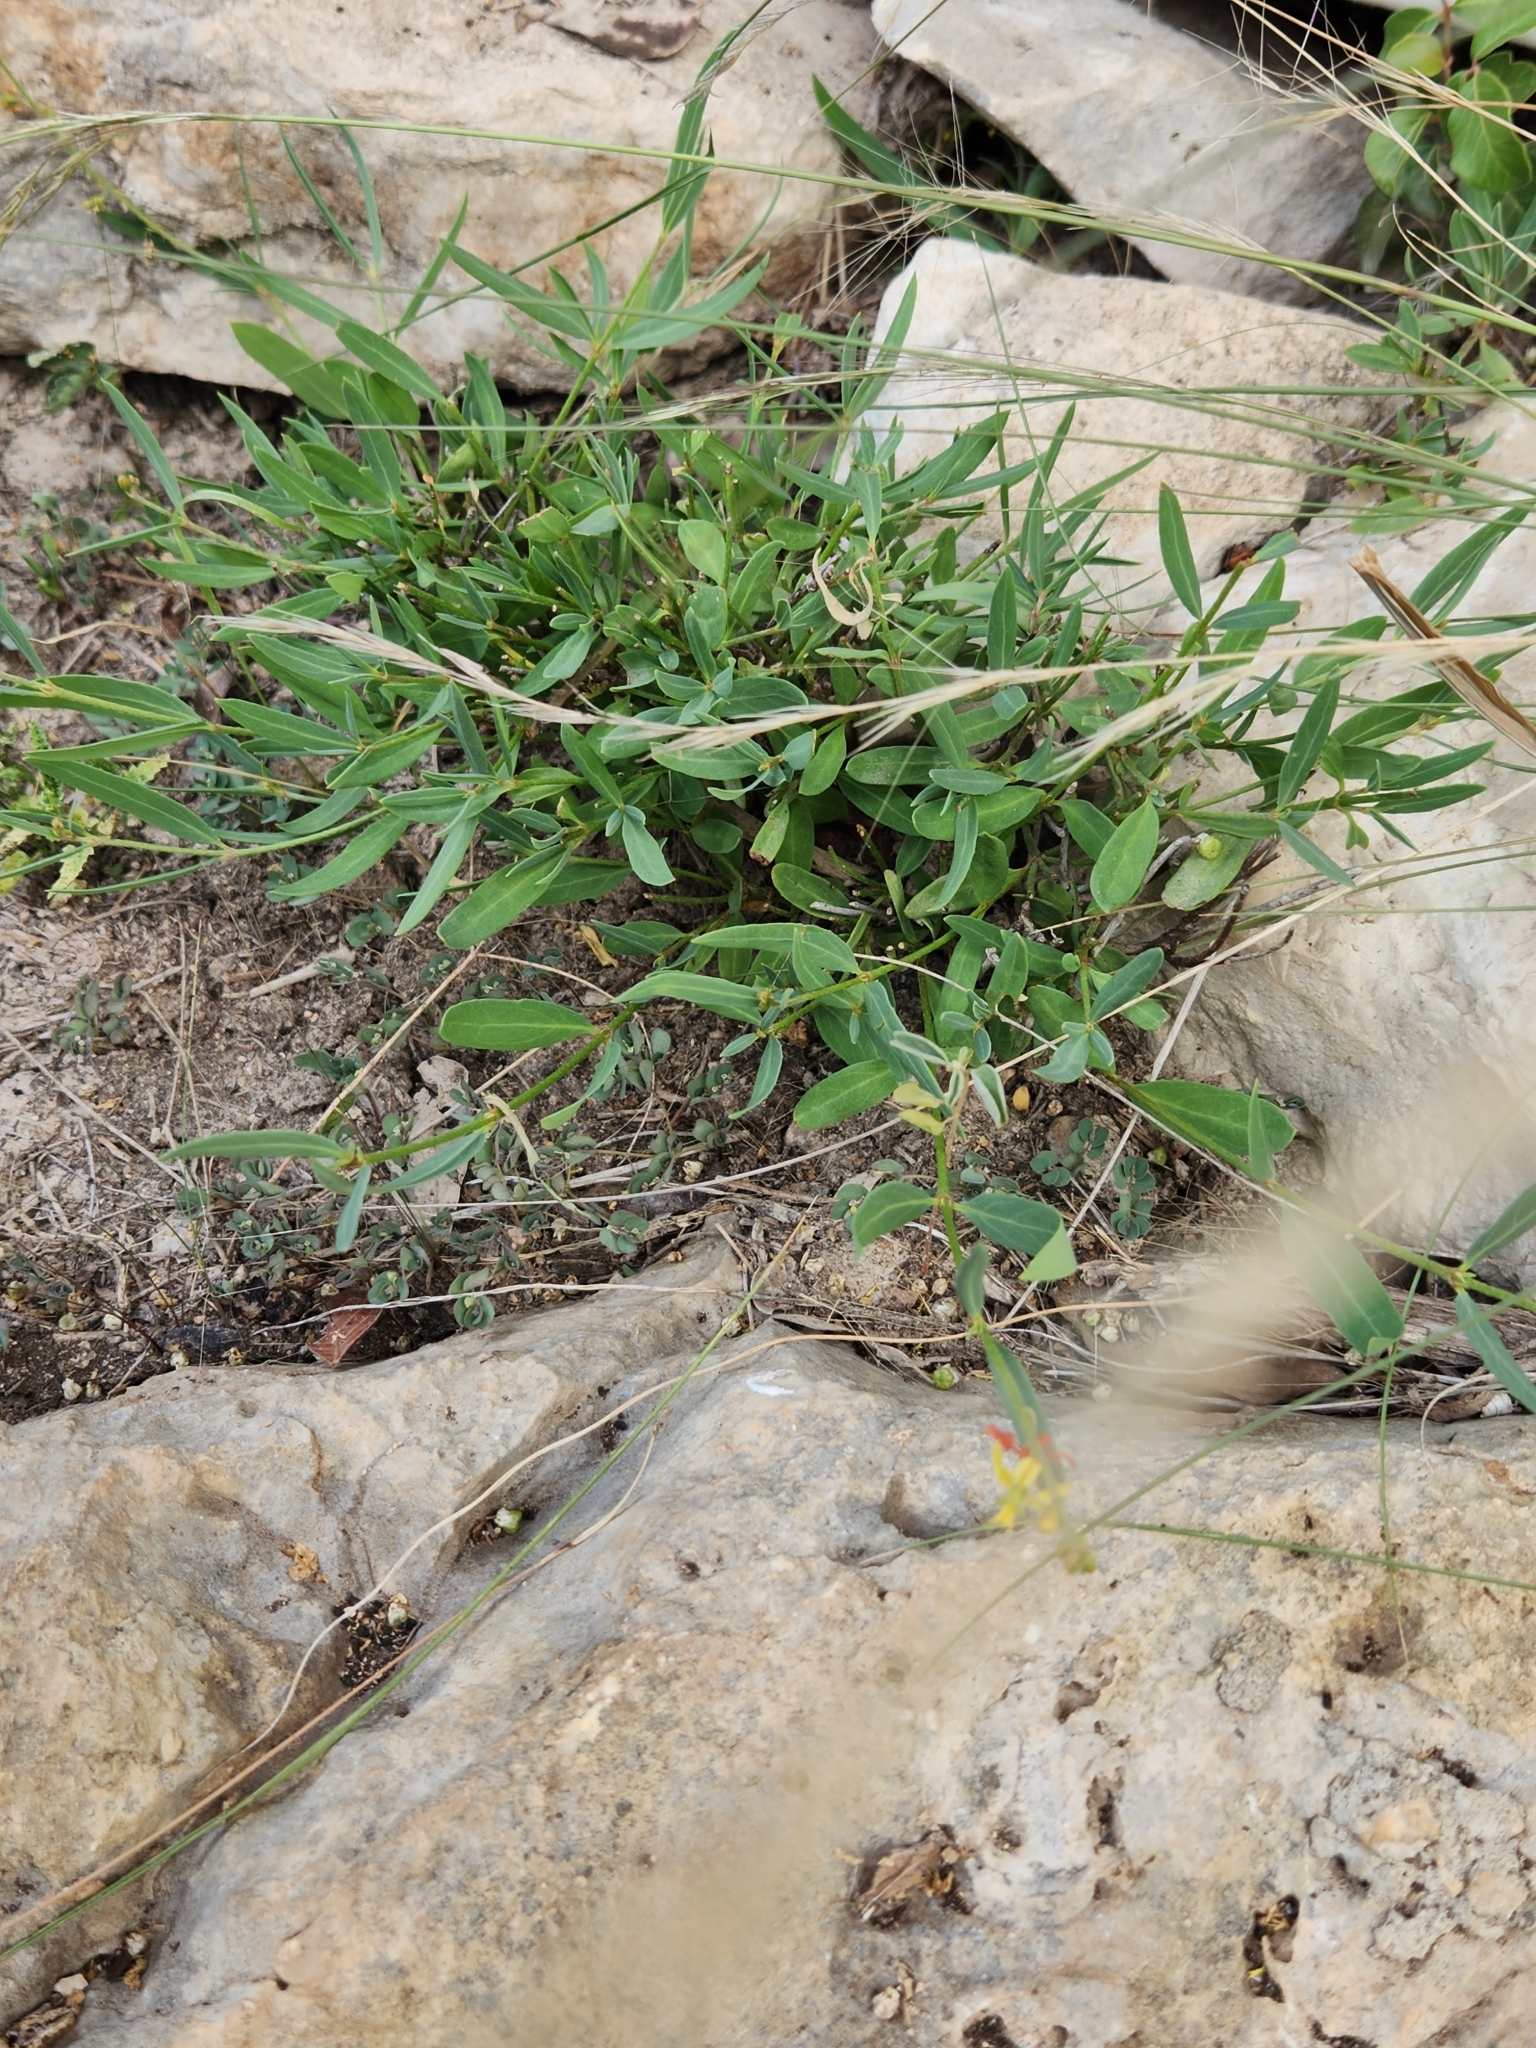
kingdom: Plantae
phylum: Tracheophyta
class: Magnoliopsida
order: Malpighiales
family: Malpighiaceae
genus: Galphimia
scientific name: Galphimia angustifolia
